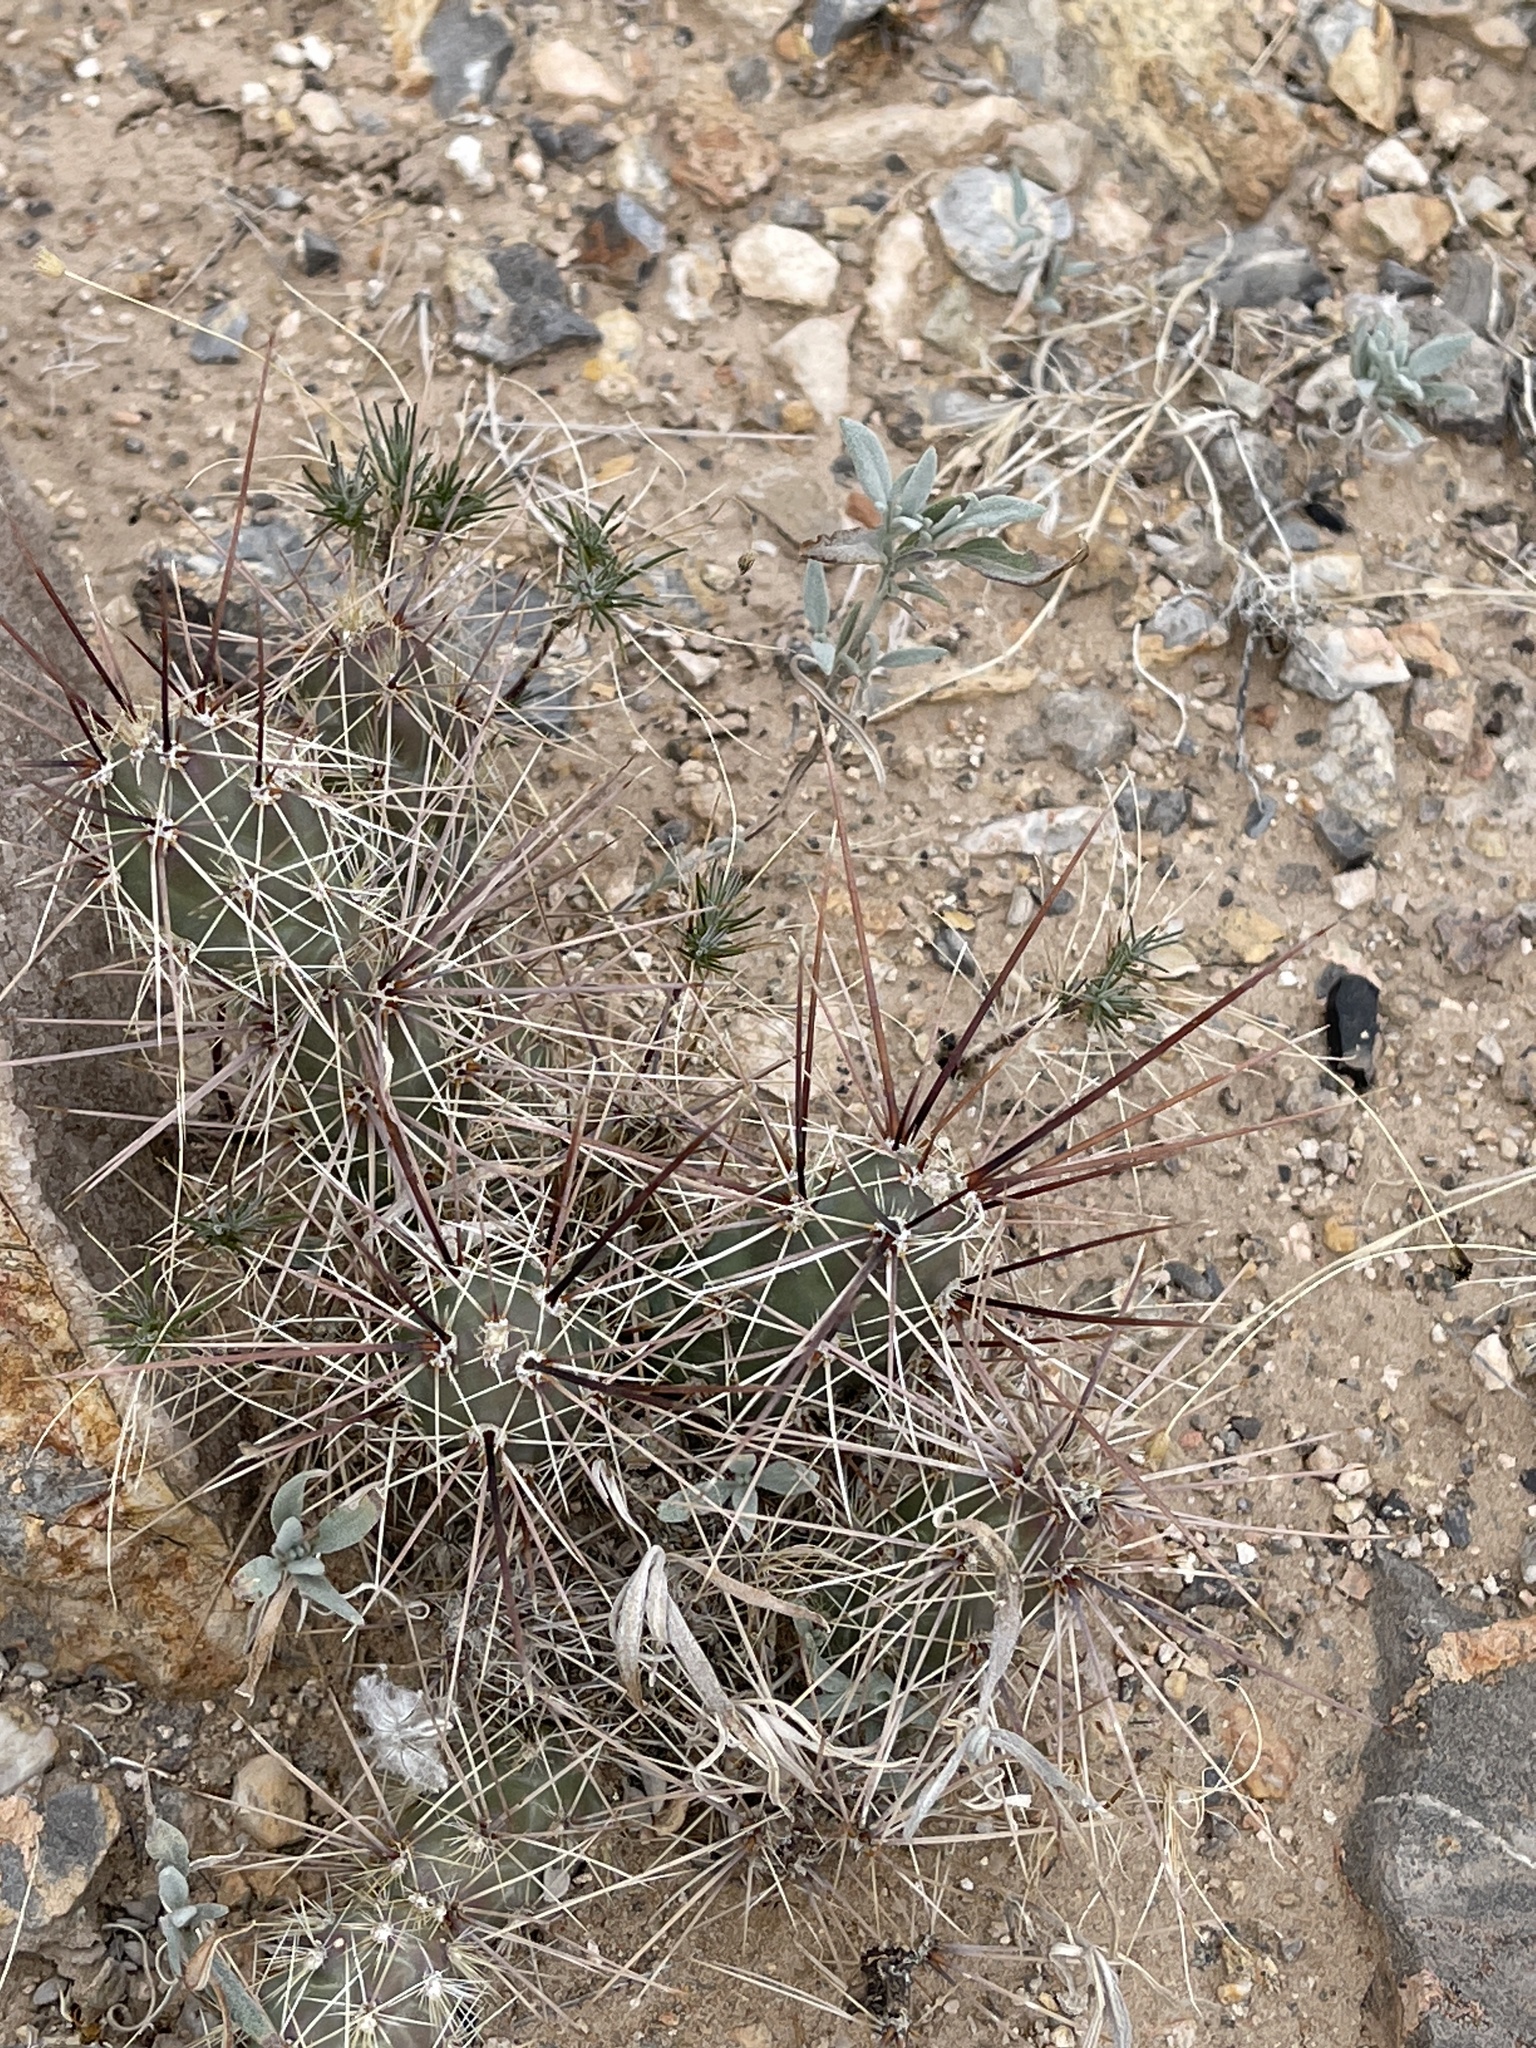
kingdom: Plantae
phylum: Tracheophyta
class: Magnoliopsida
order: Caryophyllales
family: Cactaceae
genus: Grusonia
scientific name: Grusonia grahamii
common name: Graham's club cactus
